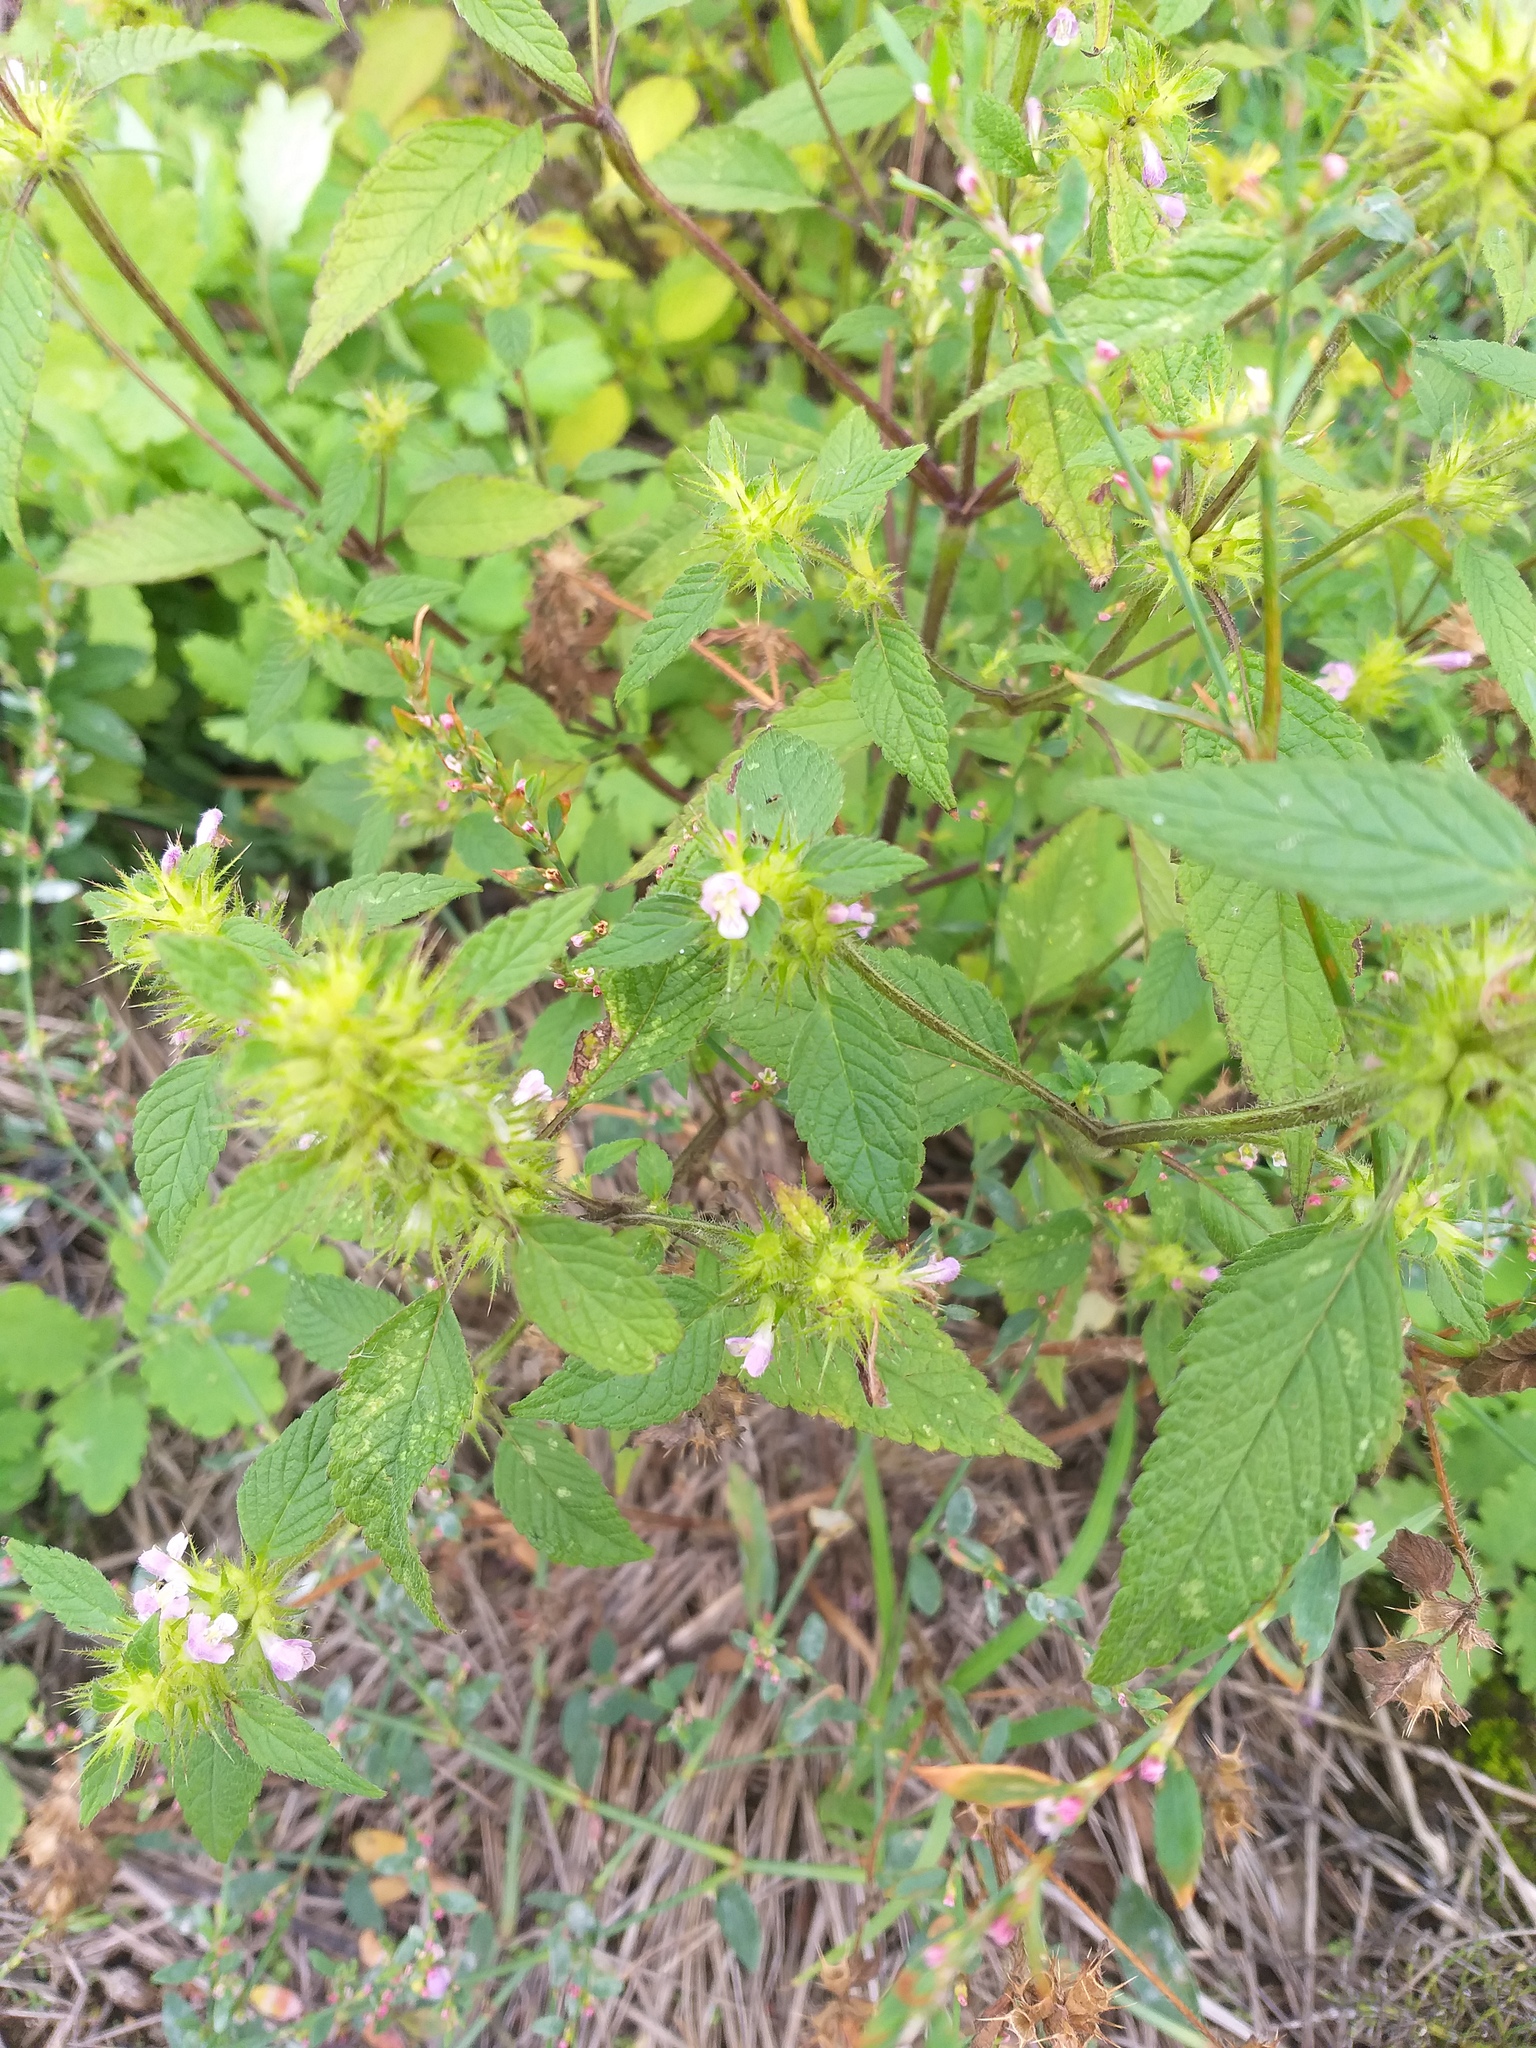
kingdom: Plantae
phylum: Tracheophyta
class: Magnoliopsida
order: Lamiales
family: Lamiaceae
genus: Galeopsis
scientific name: Galeopsis tetrahit
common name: Common hemp-nettle
